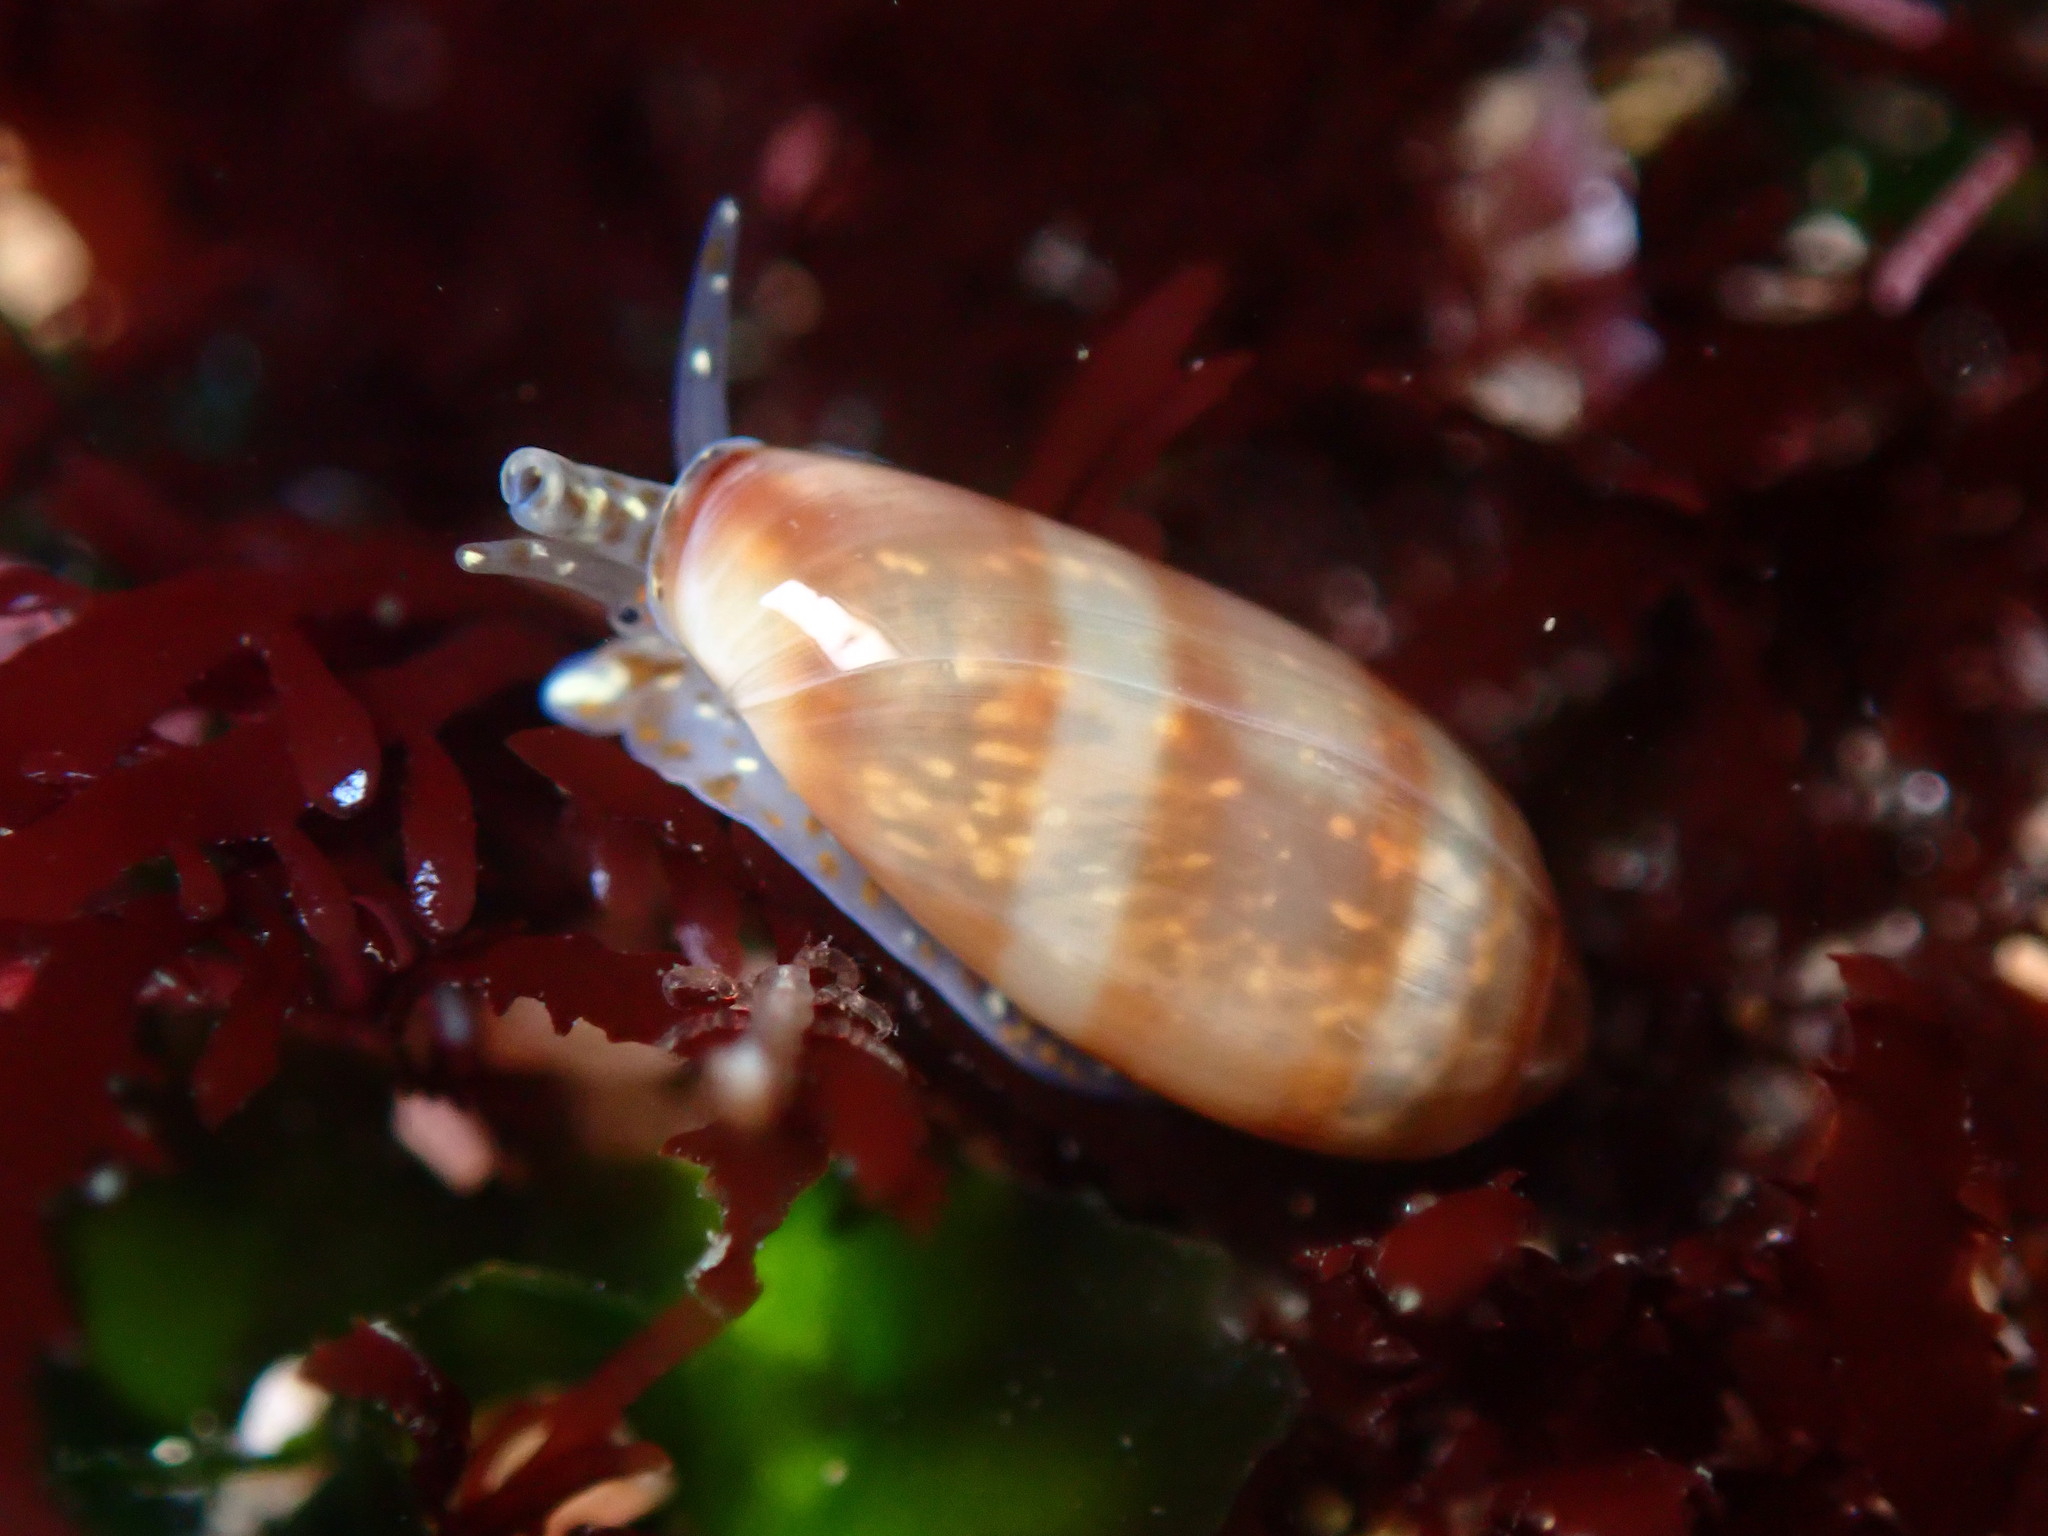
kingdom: Animalia
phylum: Mollusca
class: Gastropoda
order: Neogastropoda
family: Marginellidae
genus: Volvarina
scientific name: Volvarina taeniolata
